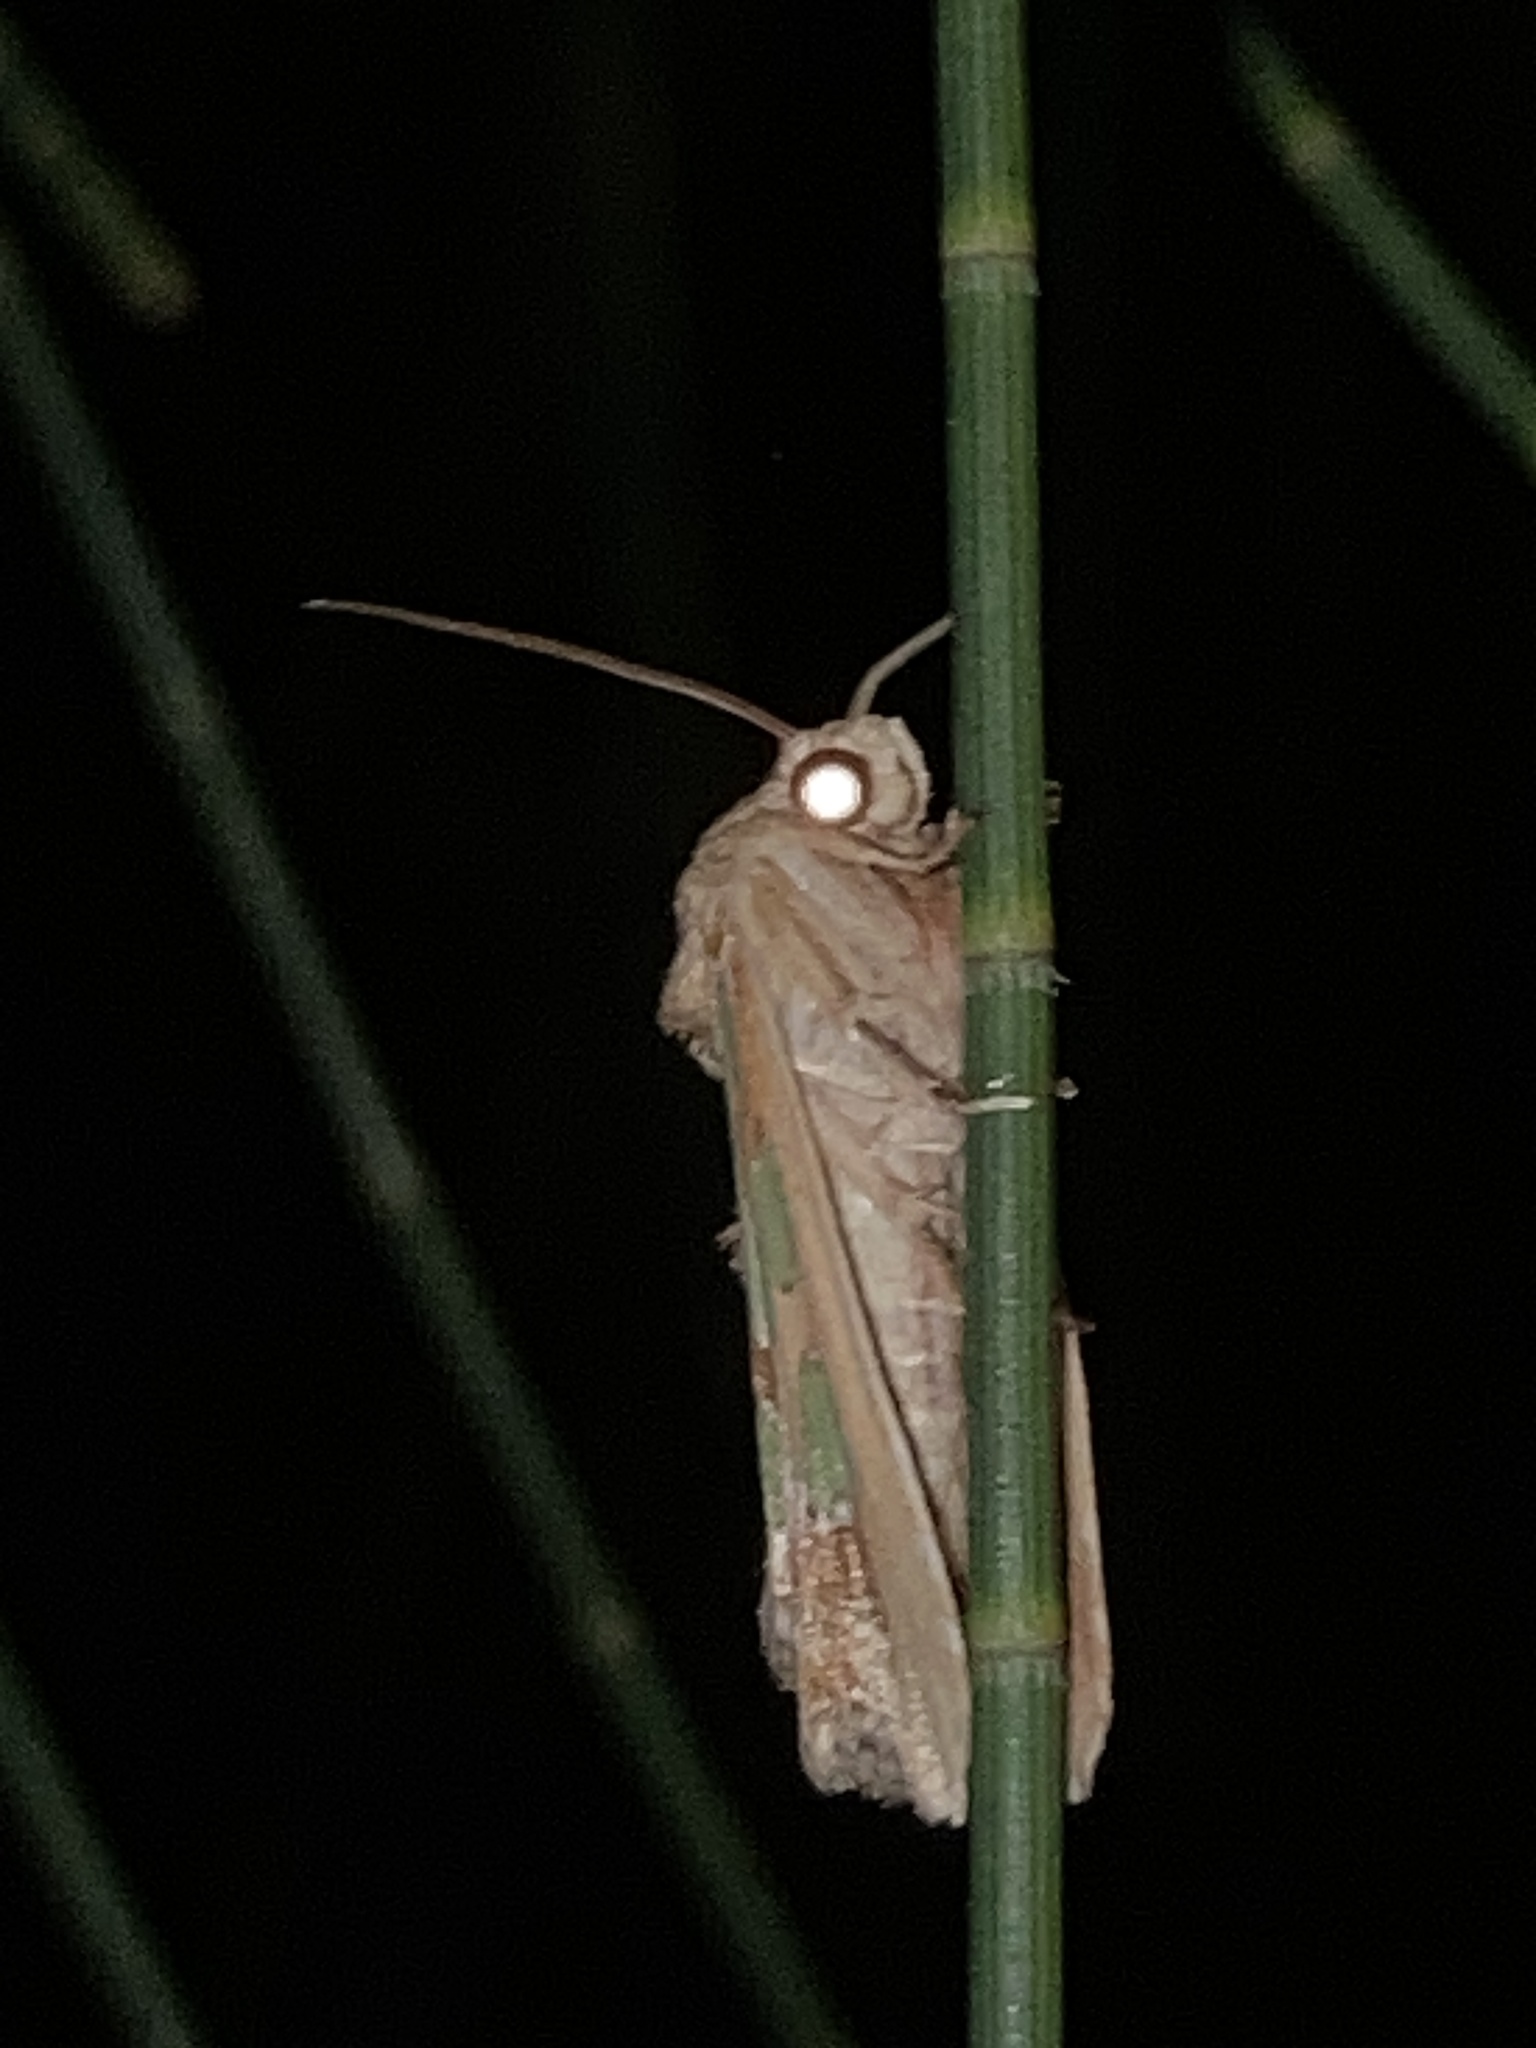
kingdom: Animalia
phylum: Arthropoda
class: Insecta
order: Lepidoptera
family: Noctuidae
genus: Cosmodes
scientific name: Cosmodes elegans
